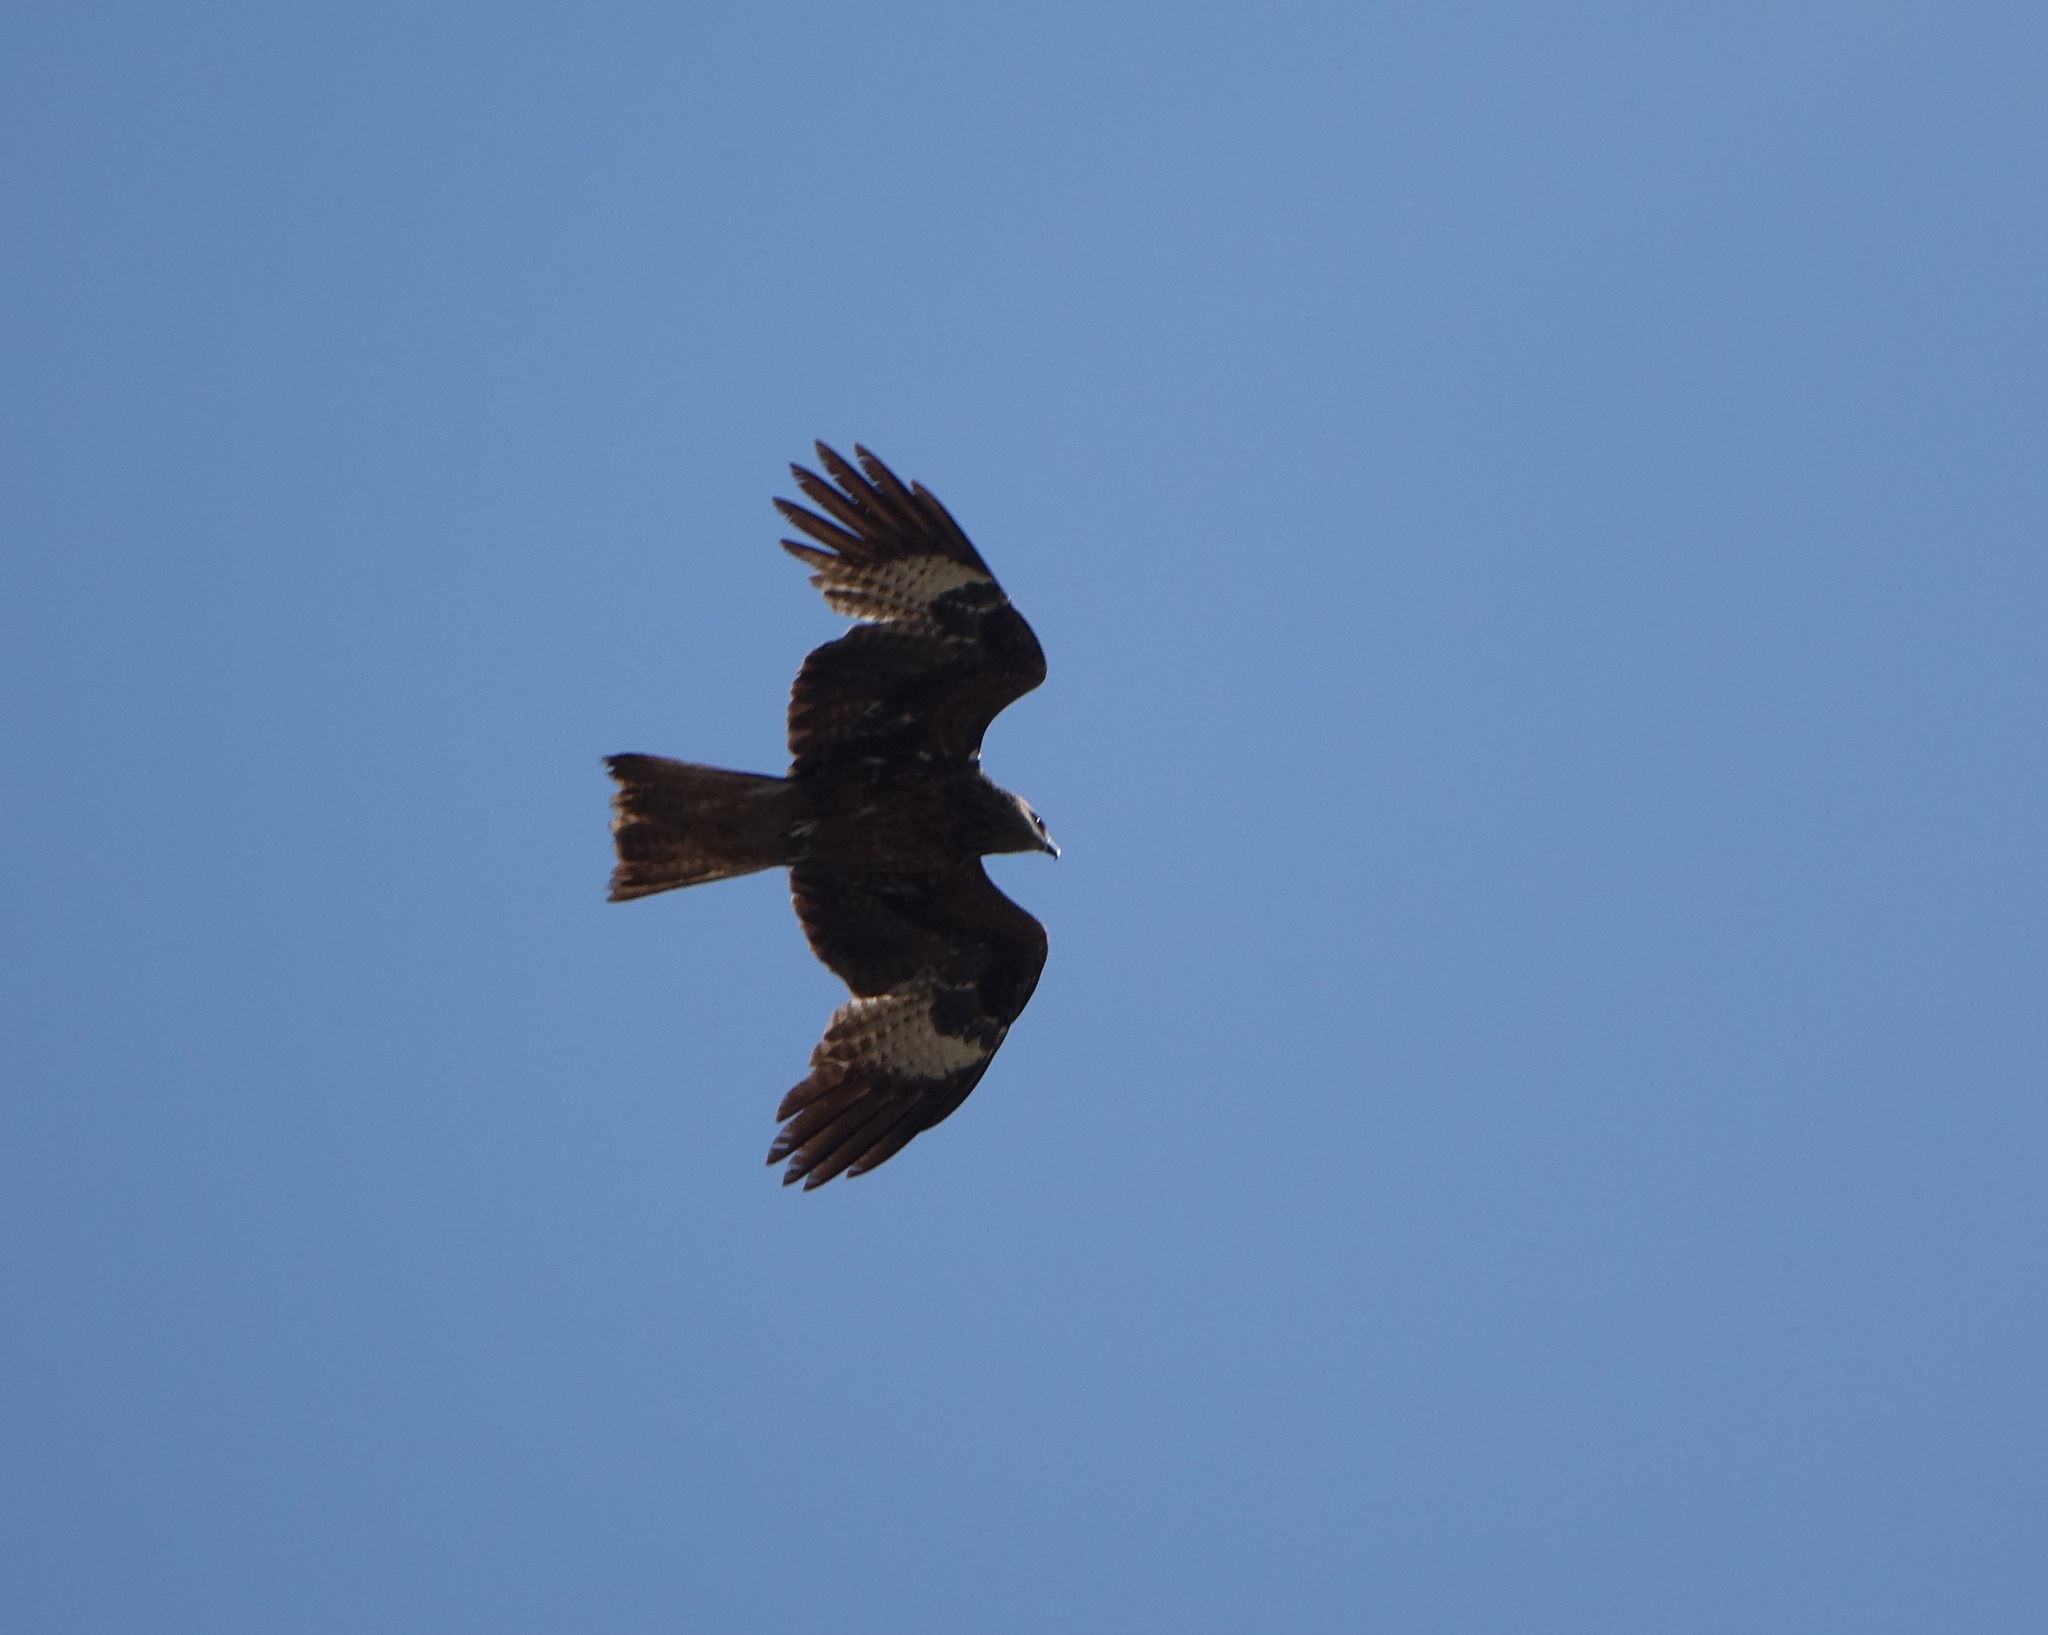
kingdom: Animalia
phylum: Chordata
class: Aves
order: Accipitriformes
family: Accipitridae
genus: Milvus
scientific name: Milvus migrans
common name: Black kite
